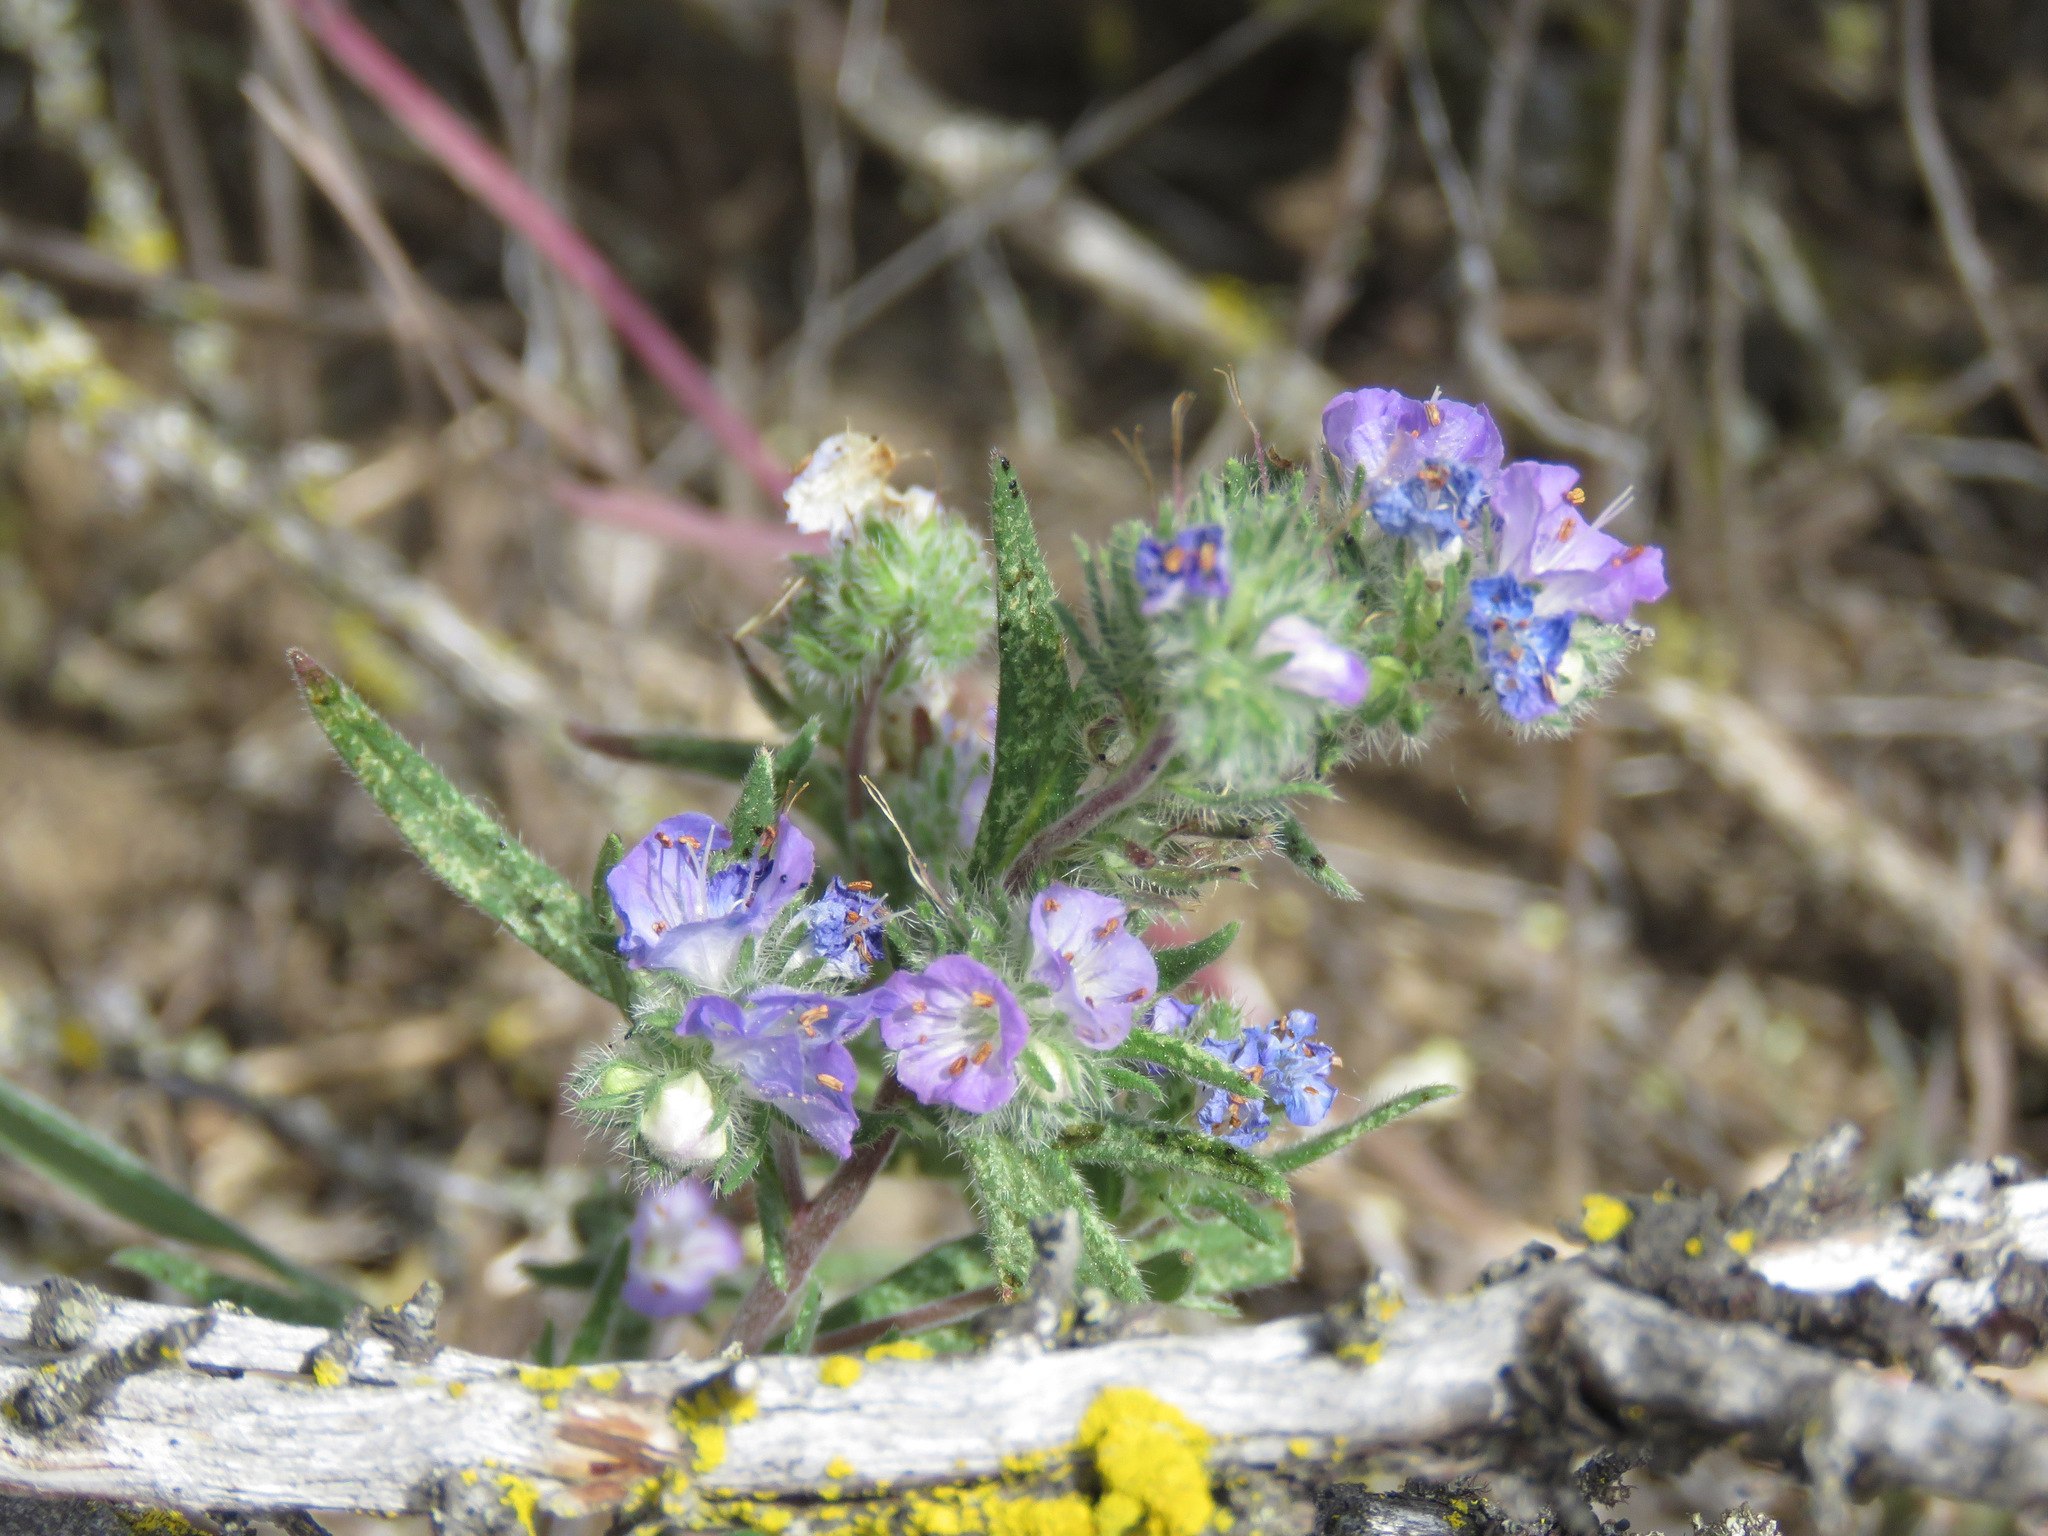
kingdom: Plantae
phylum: Tracheophyta
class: Magnoliopsida
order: Boraginales
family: Hydrophyllaceae
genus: Phacelia
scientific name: Phacelia linearis
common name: Linear-leaved phacelia
